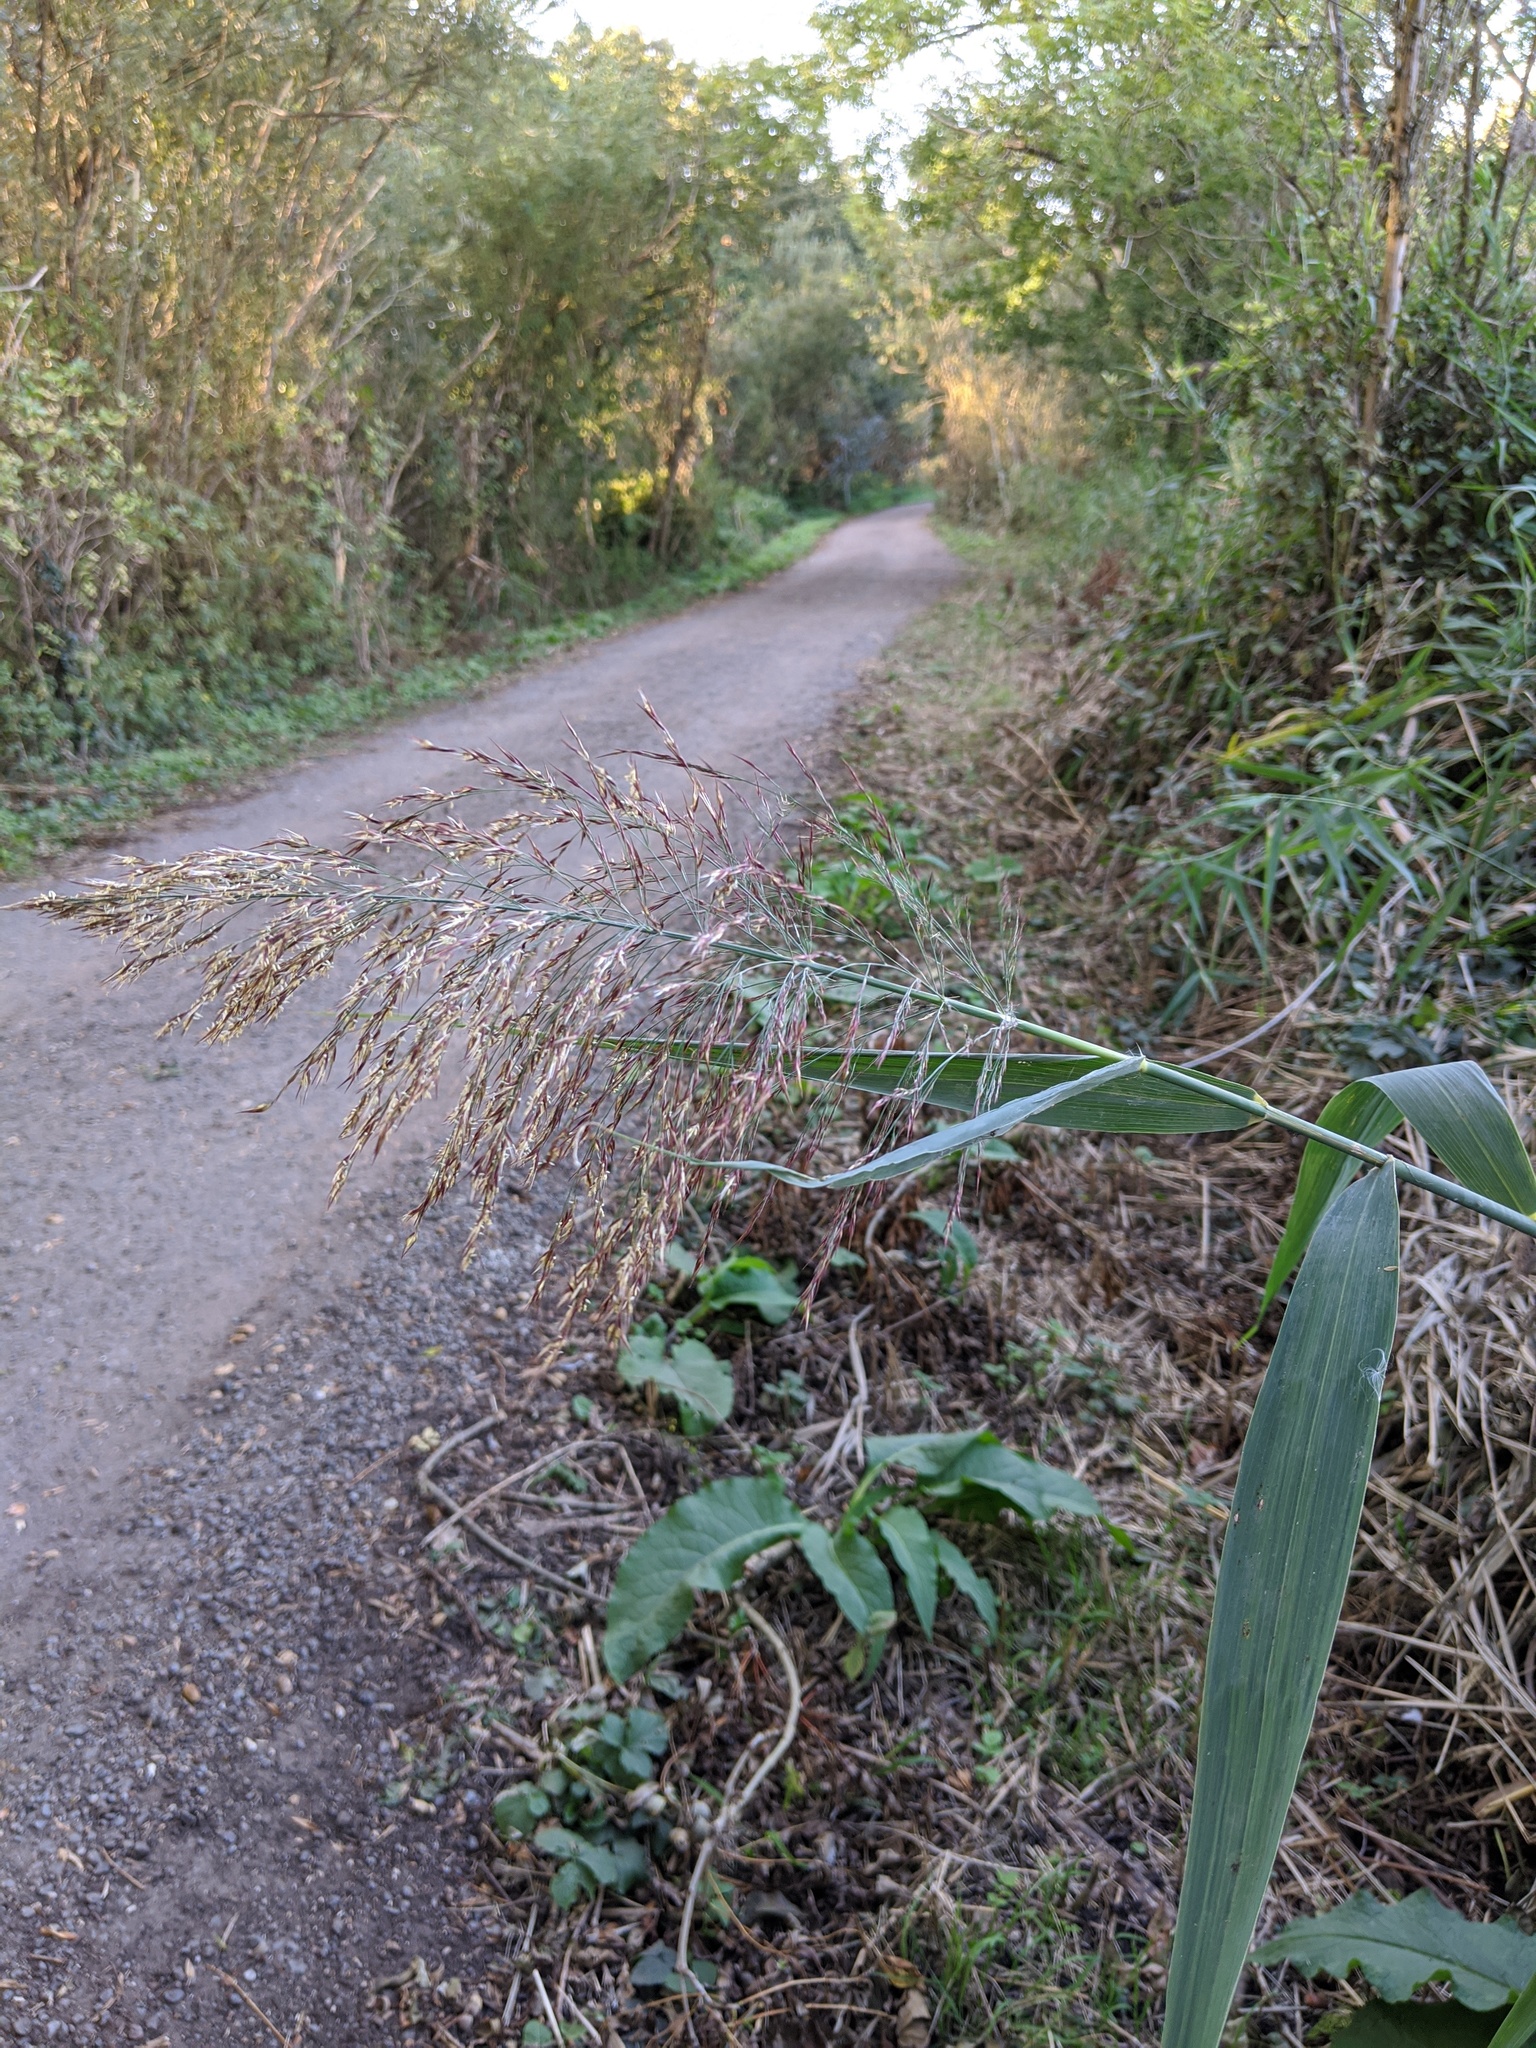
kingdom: Plantae
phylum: Tracheophyta
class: Liliopsida
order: Poales
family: Poaceae
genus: Phragmites
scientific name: Phragmites australis
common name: Common reed
